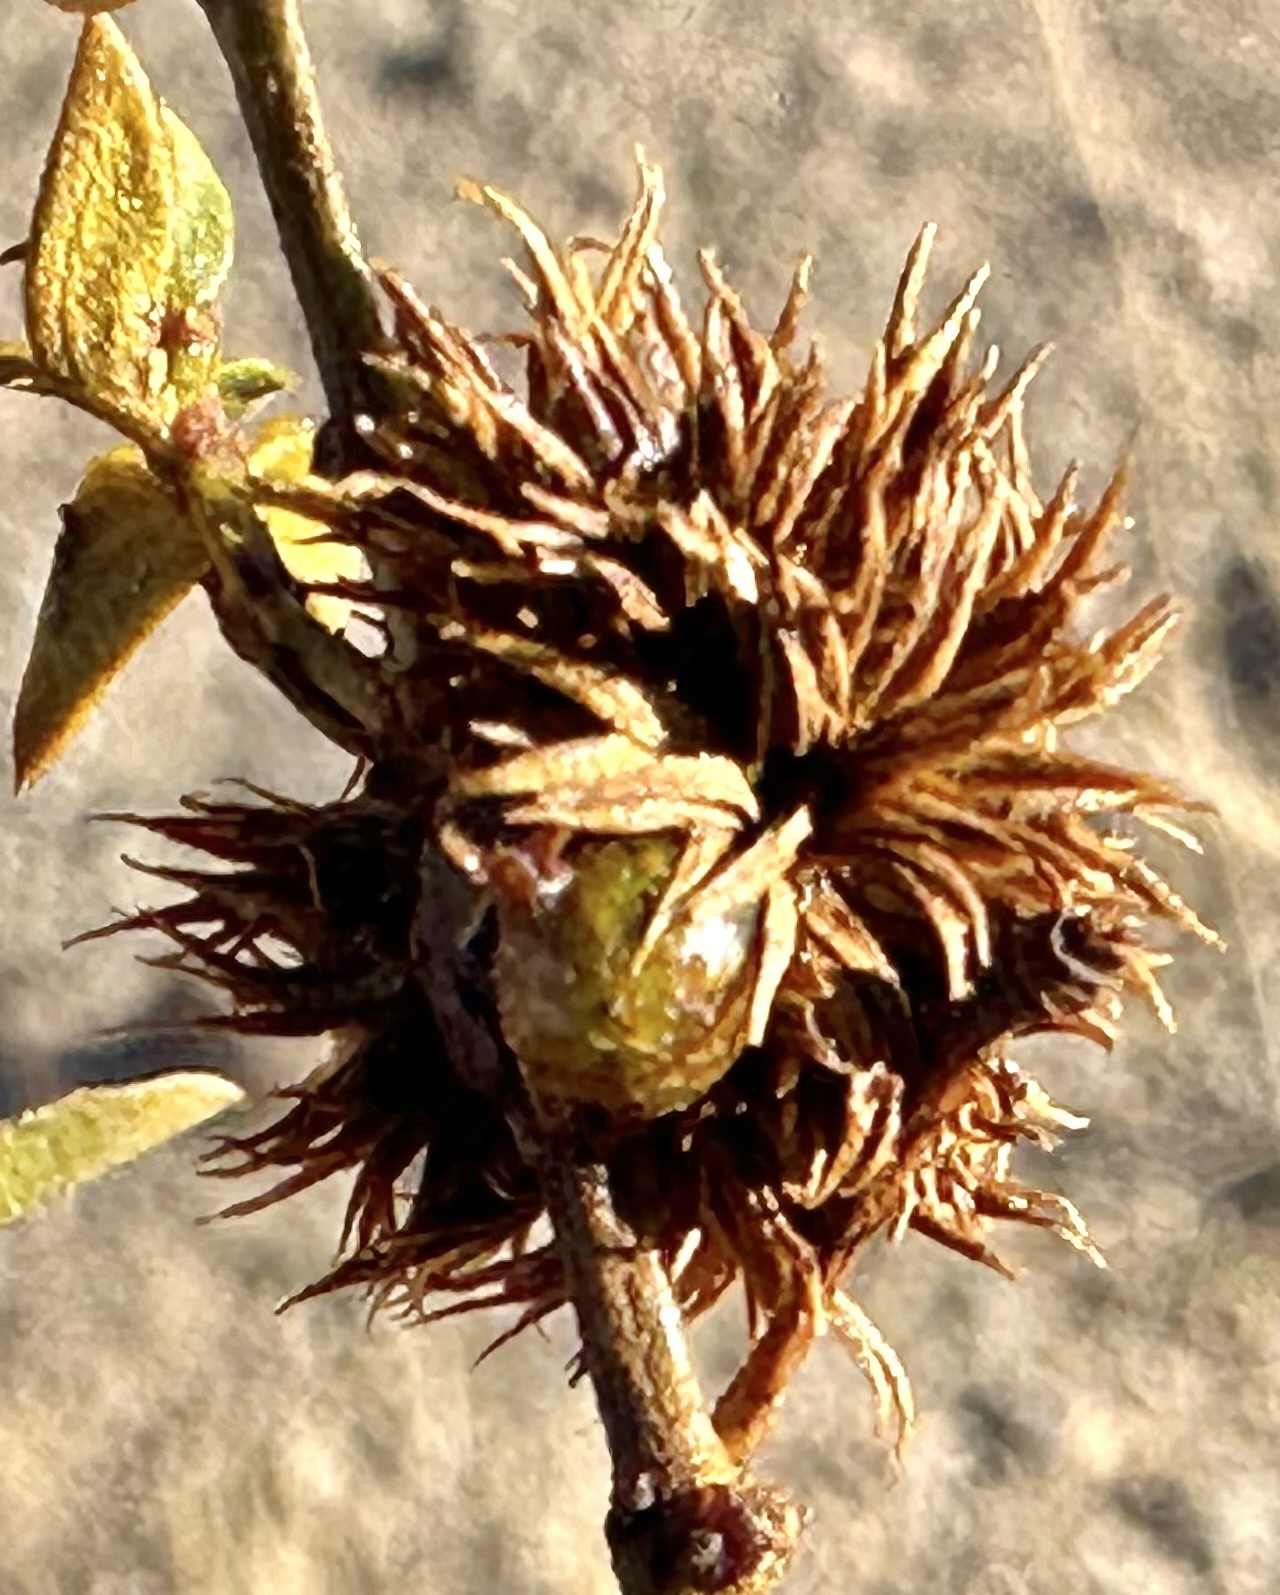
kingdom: Animalia
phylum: Arthropoda
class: Insecta
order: Diptera
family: Cecidomyiidae
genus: Asphondylia
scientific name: Asphondylia resinosa
